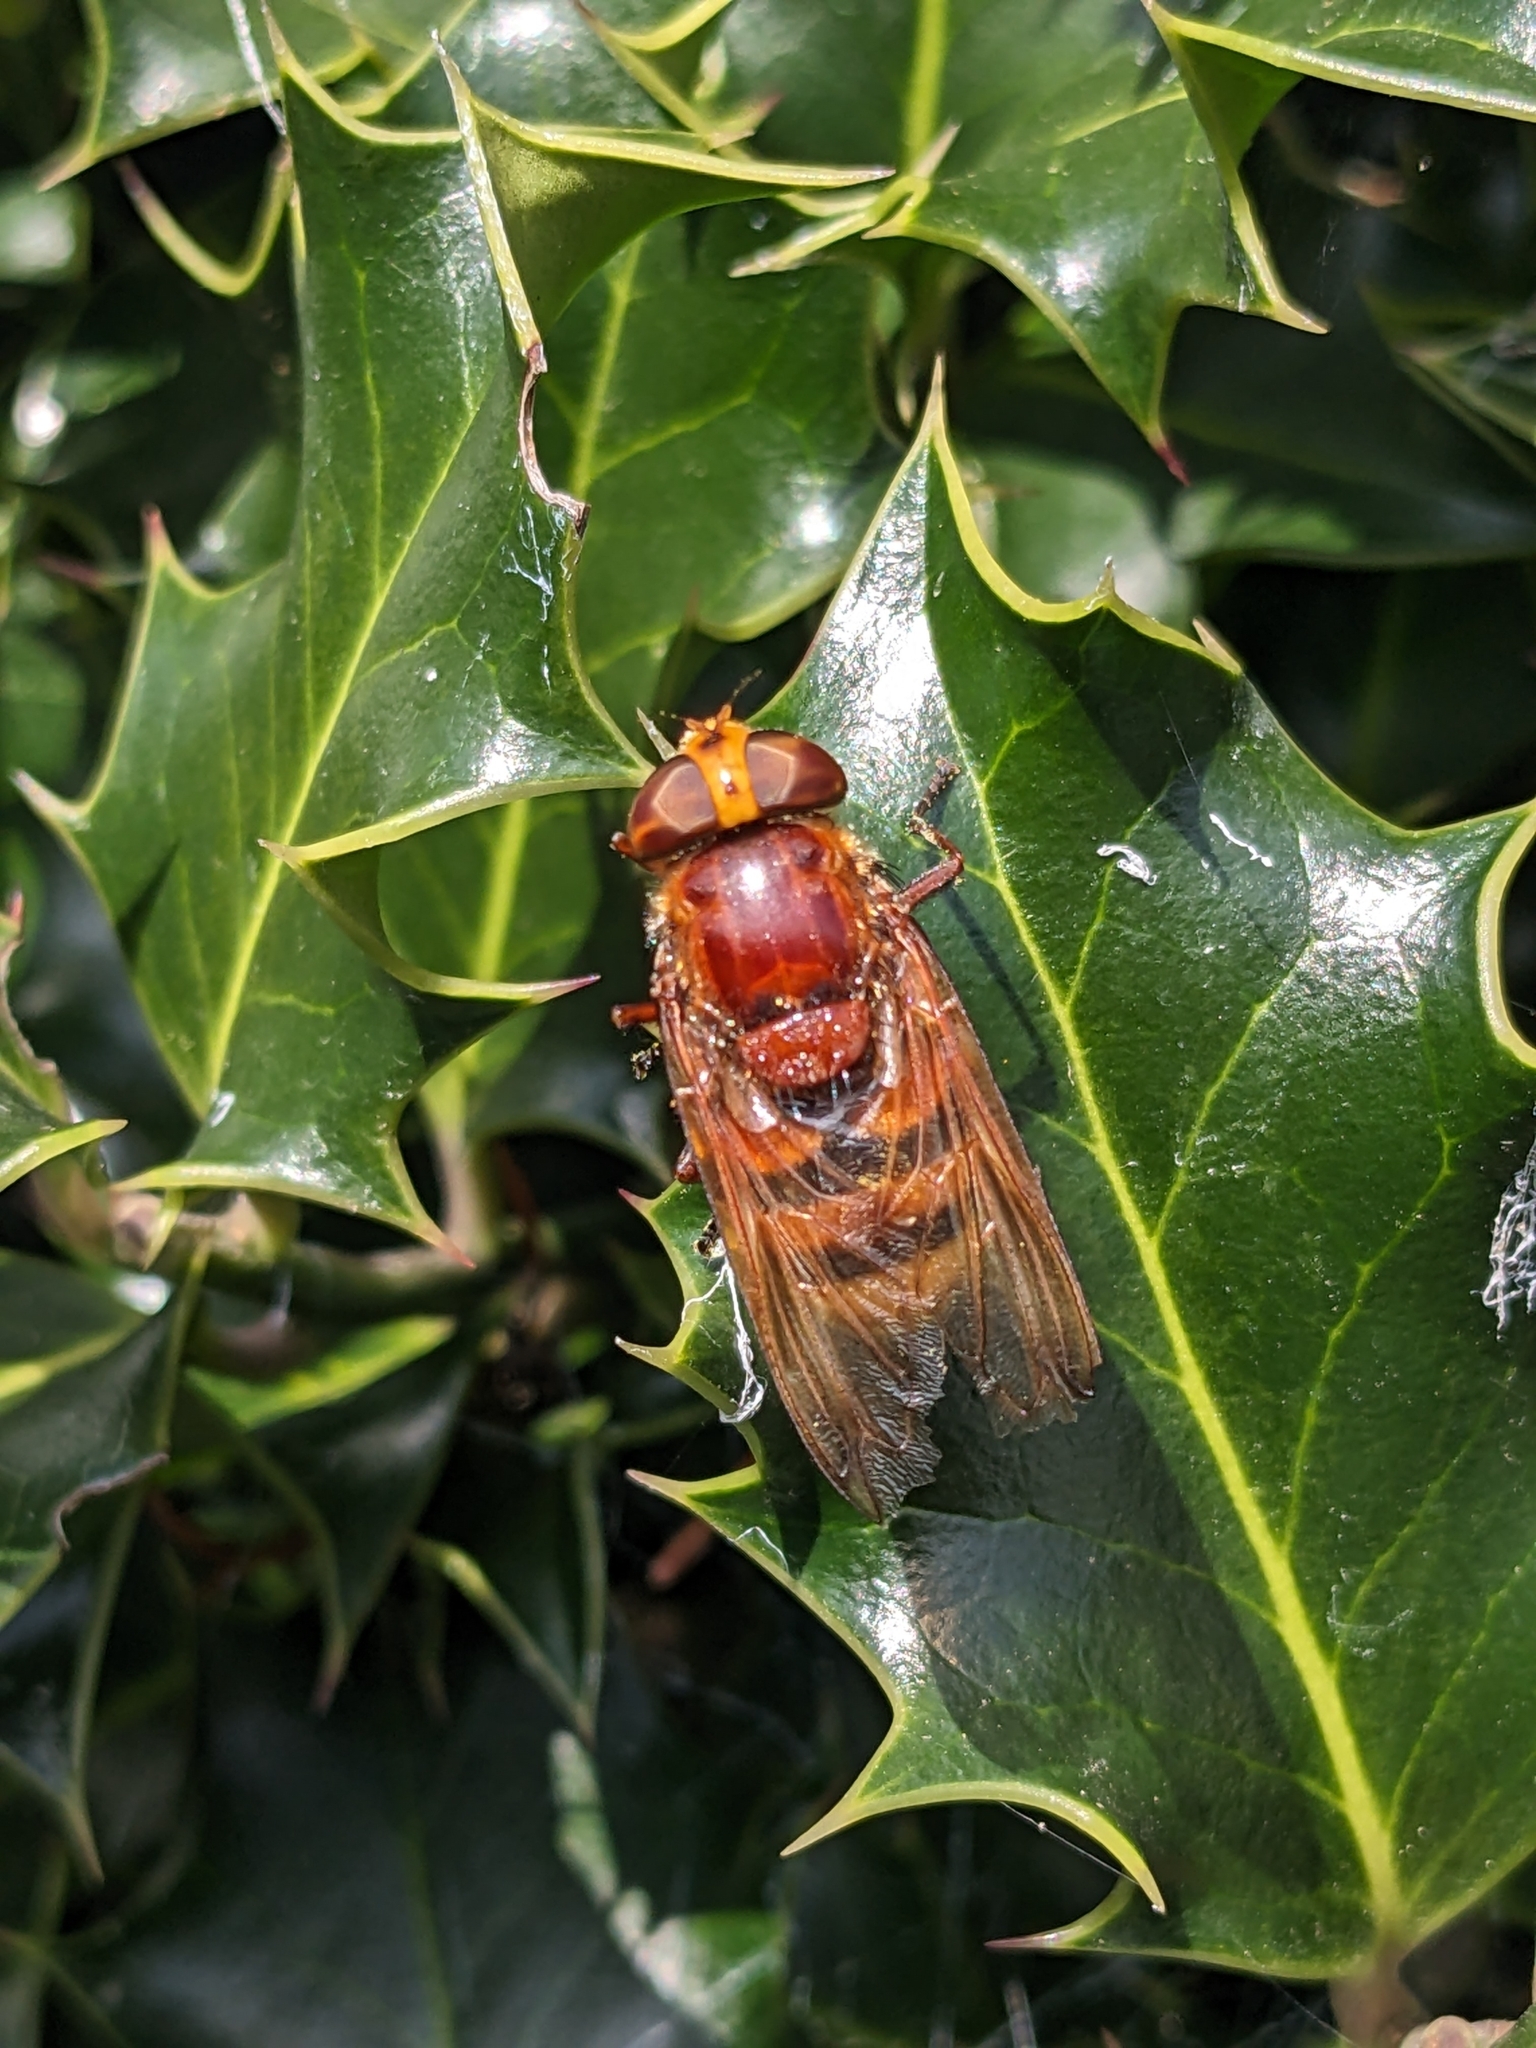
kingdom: Animalia
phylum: Arthropoda
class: Insecta
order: Diptera
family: Syrphidae
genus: Volucella
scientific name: Volucella zonaria
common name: Hornet hoverfly
